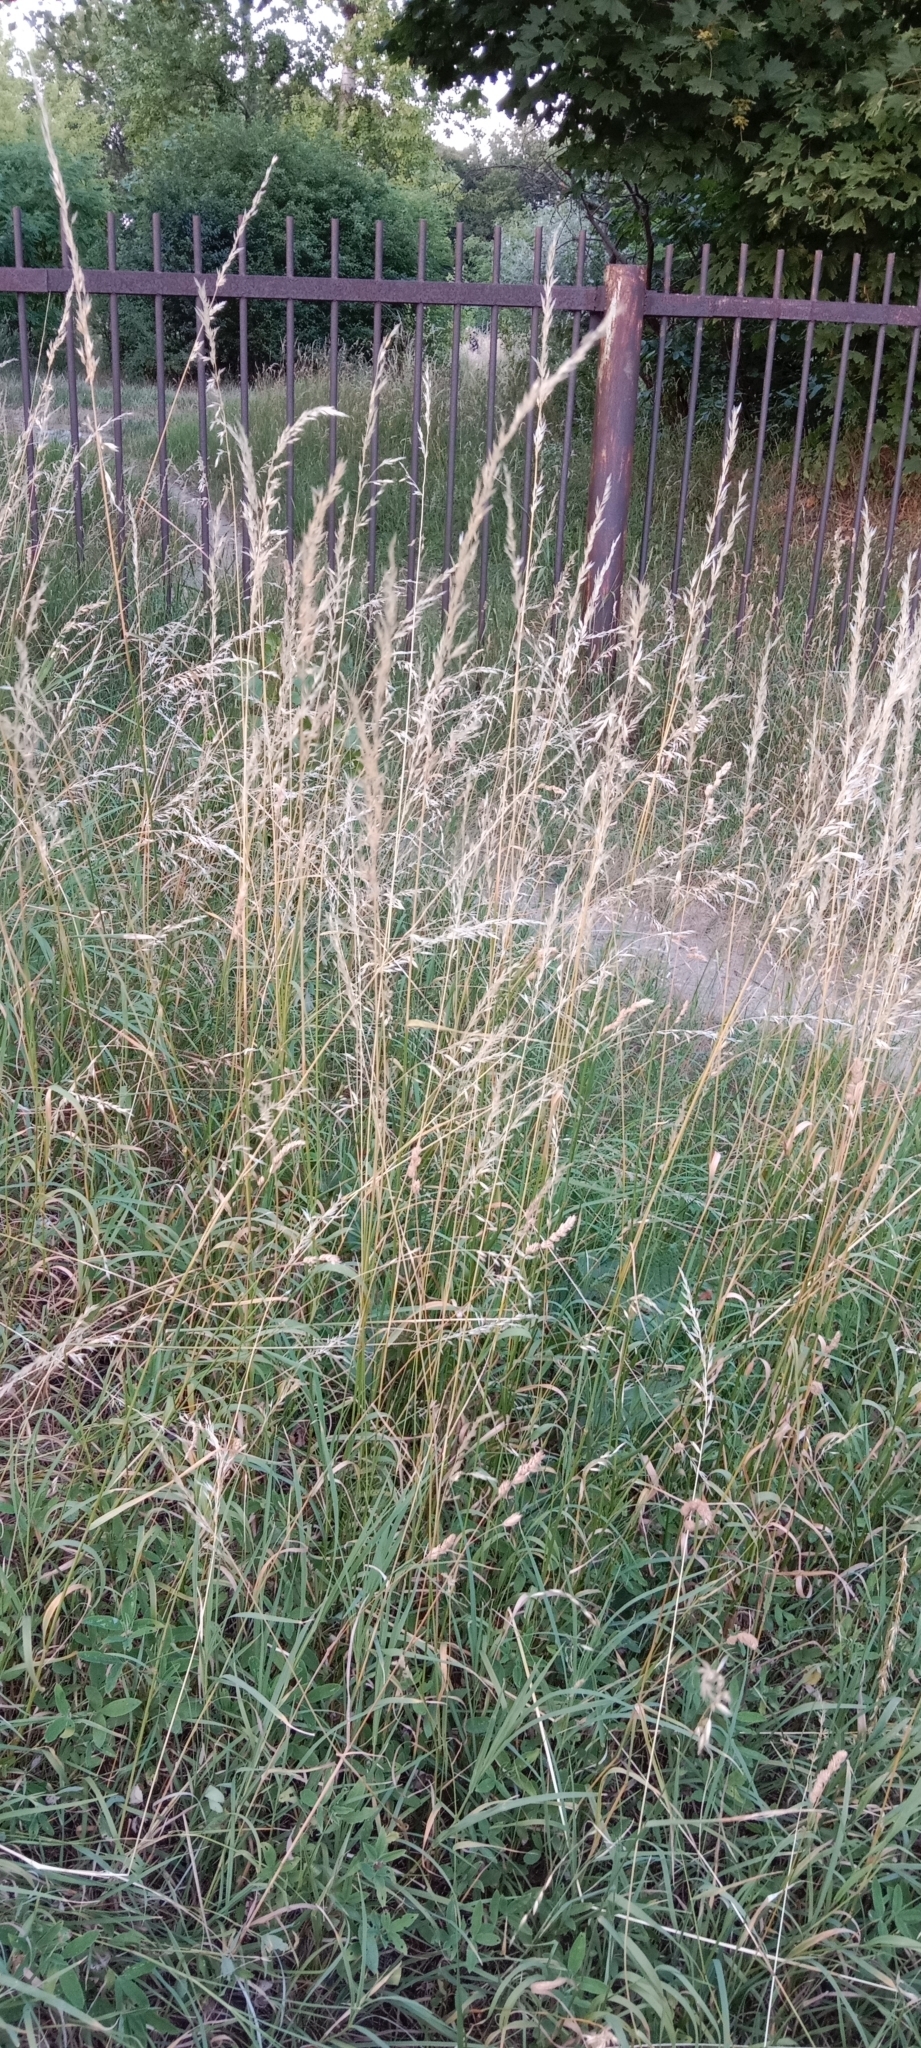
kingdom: Plantae
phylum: Tracheophyta
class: Liliopsida
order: Poales
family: Poaceae
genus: Arrhenatherum
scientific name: Arrhenatherum elatius
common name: Tall oatgrass
